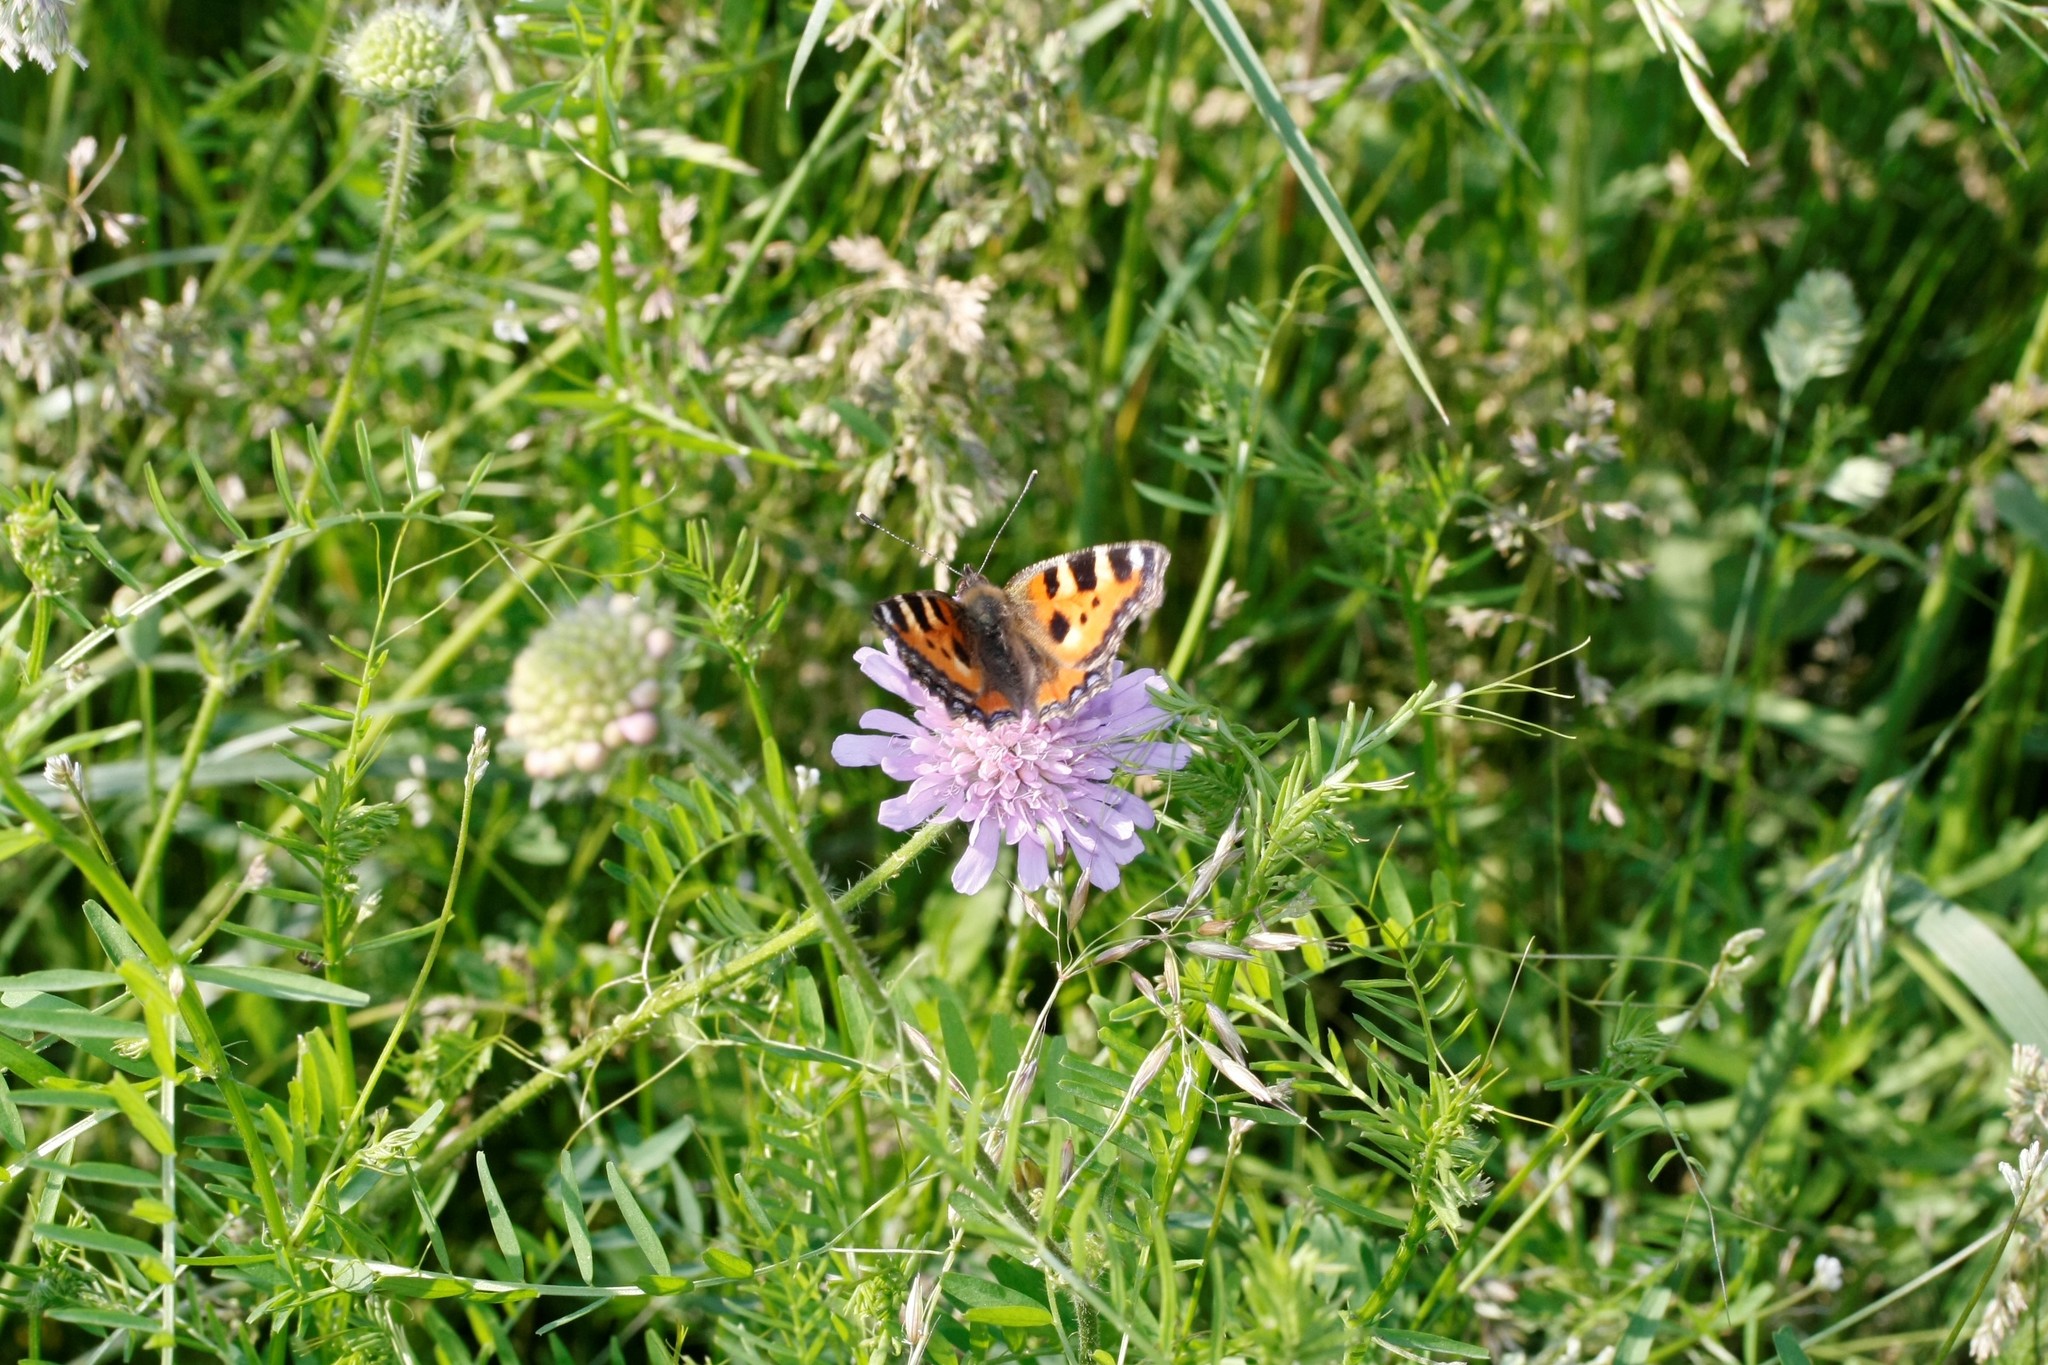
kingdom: Animalia
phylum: Arthropoda
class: Insecta
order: Lepidoptera
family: Nymphalidae
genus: Aglais
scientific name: Aglais urticae
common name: Small tortoiseshell
